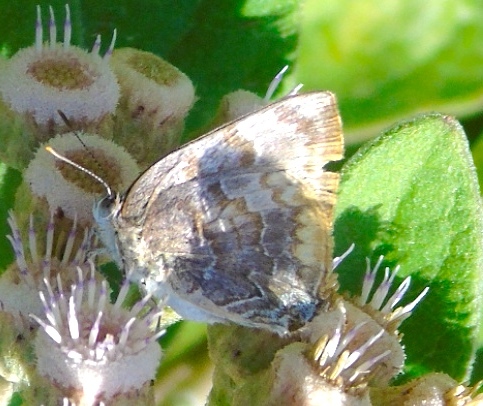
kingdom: Animalia
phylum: Arthropoda
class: Insecta
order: Lepidoptera
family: Lycaenidae
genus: Rekoa
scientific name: Rekoa palegon
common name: Gold-bordered hairstreak
